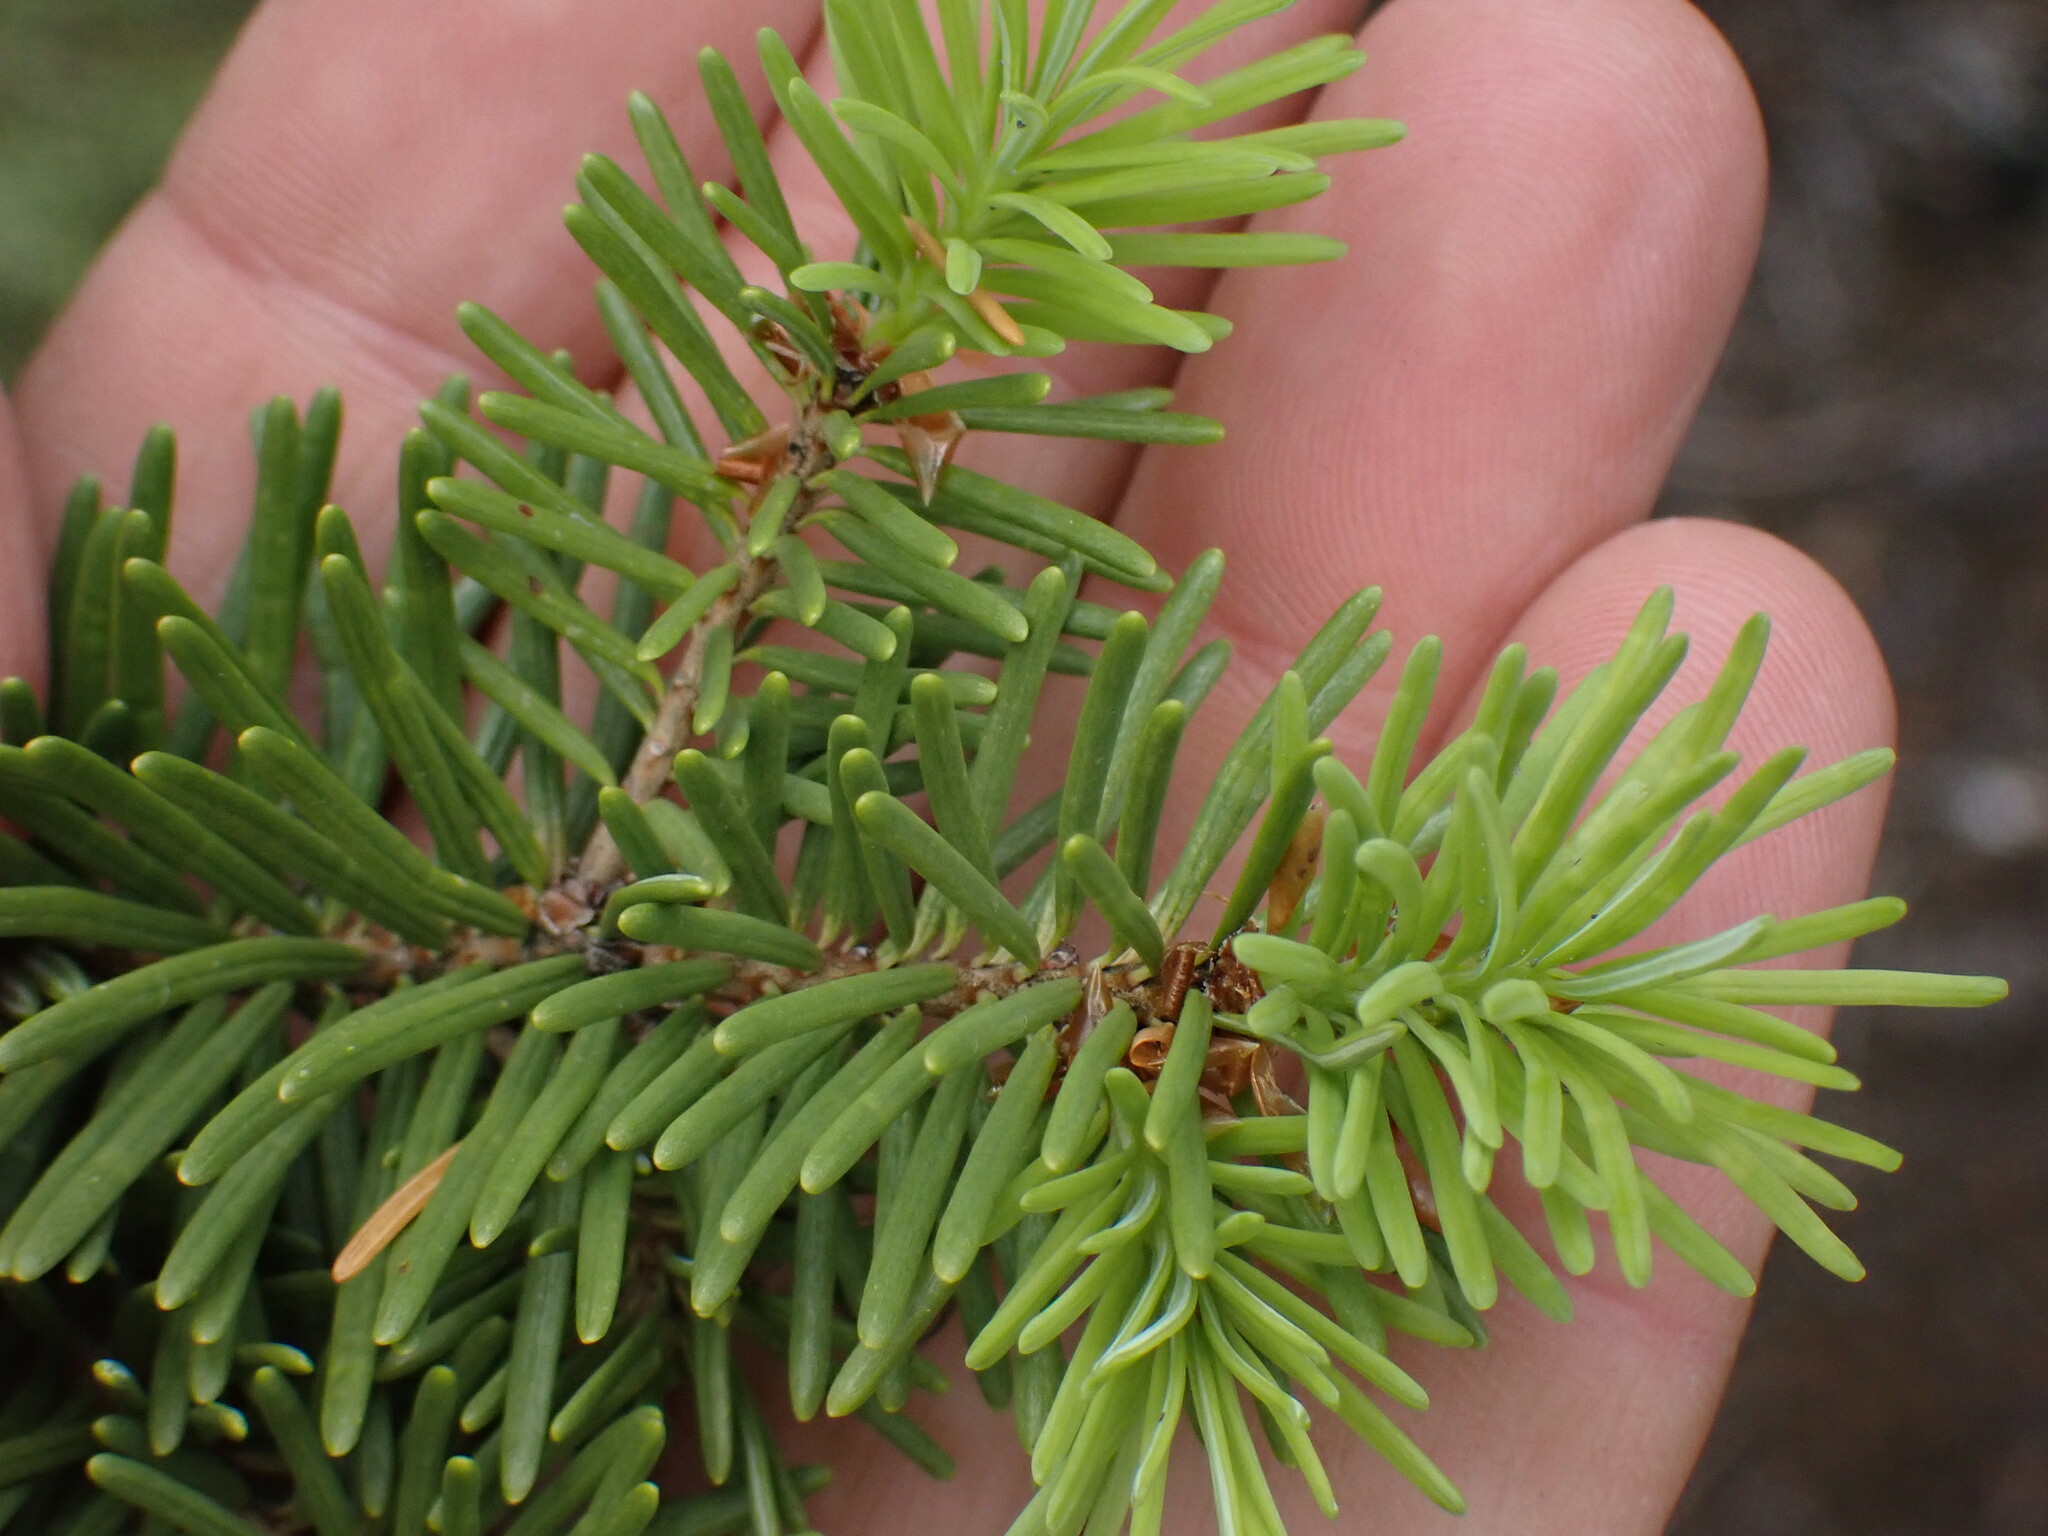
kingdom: Plantae
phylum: Tracheophyta
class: Pinopsida
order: Pinales
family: Pinaceae
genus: Pseudotsuga
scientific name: Pseudotsuga menziesii
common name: Douglas fir
